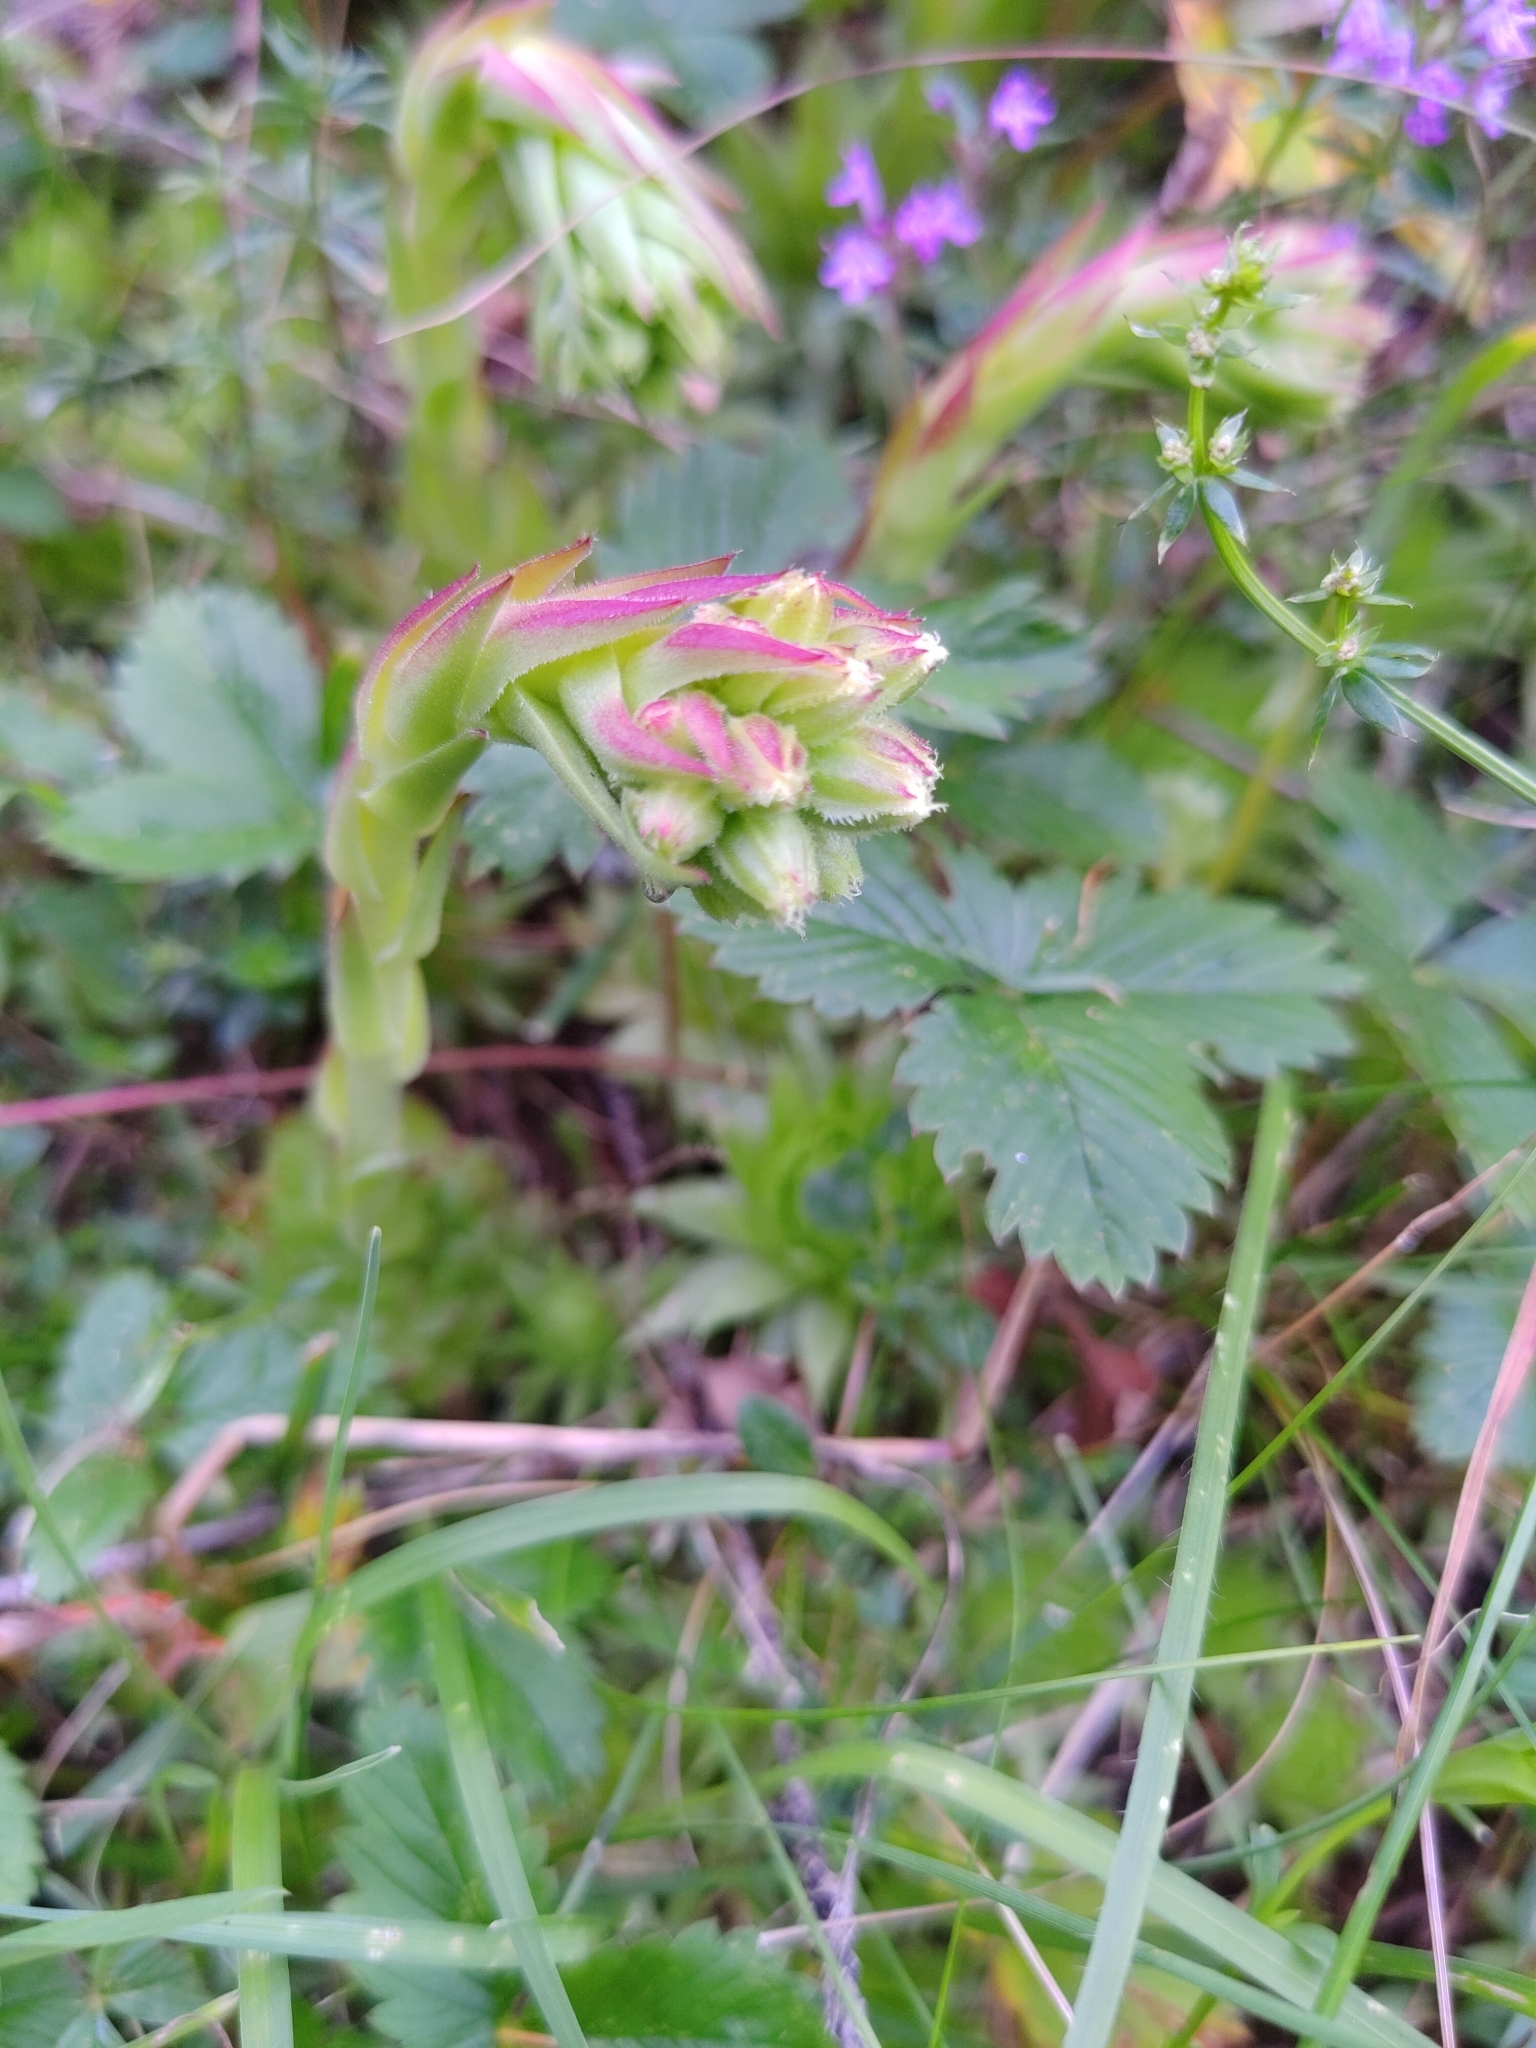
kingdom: Plantae
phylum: Tracheophyta
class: Magnoliopsida
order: Saxifragales
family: Crassulaceae
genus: Sempervivum
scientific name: Sempervivum globiferum
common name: Rolling hen-and-chicks
